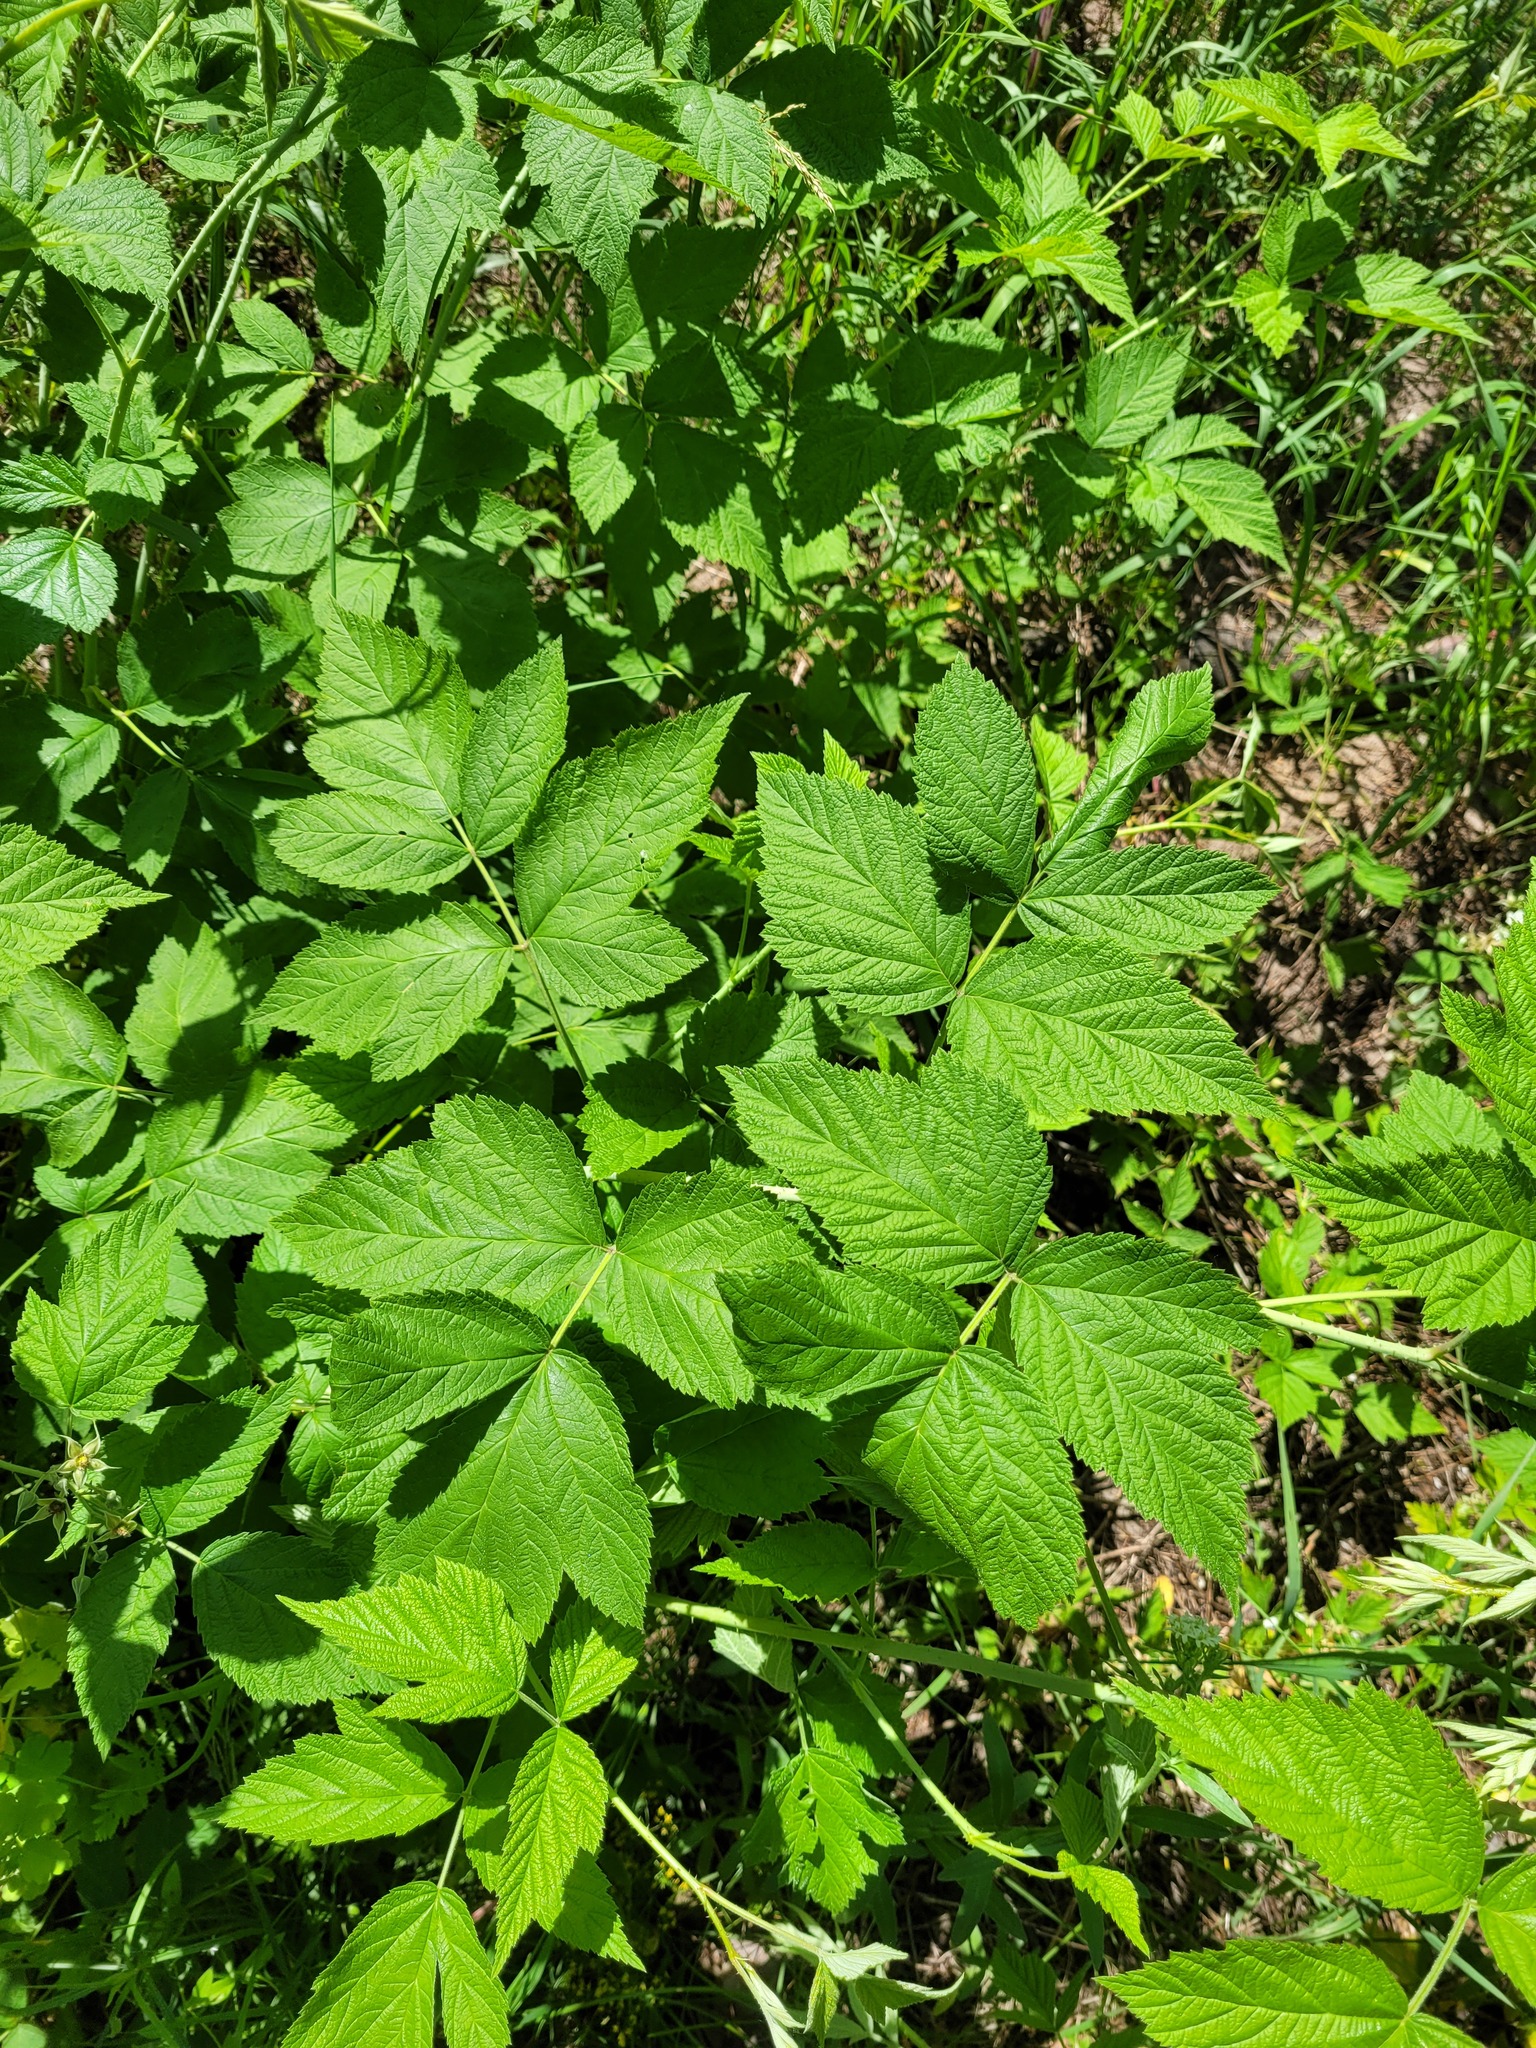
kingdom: Plantae
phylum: Tracheophyta
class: Magnoliopsida
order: Rosales
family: Rosaceae
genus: Rubus
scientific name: Rubus idaeoides
